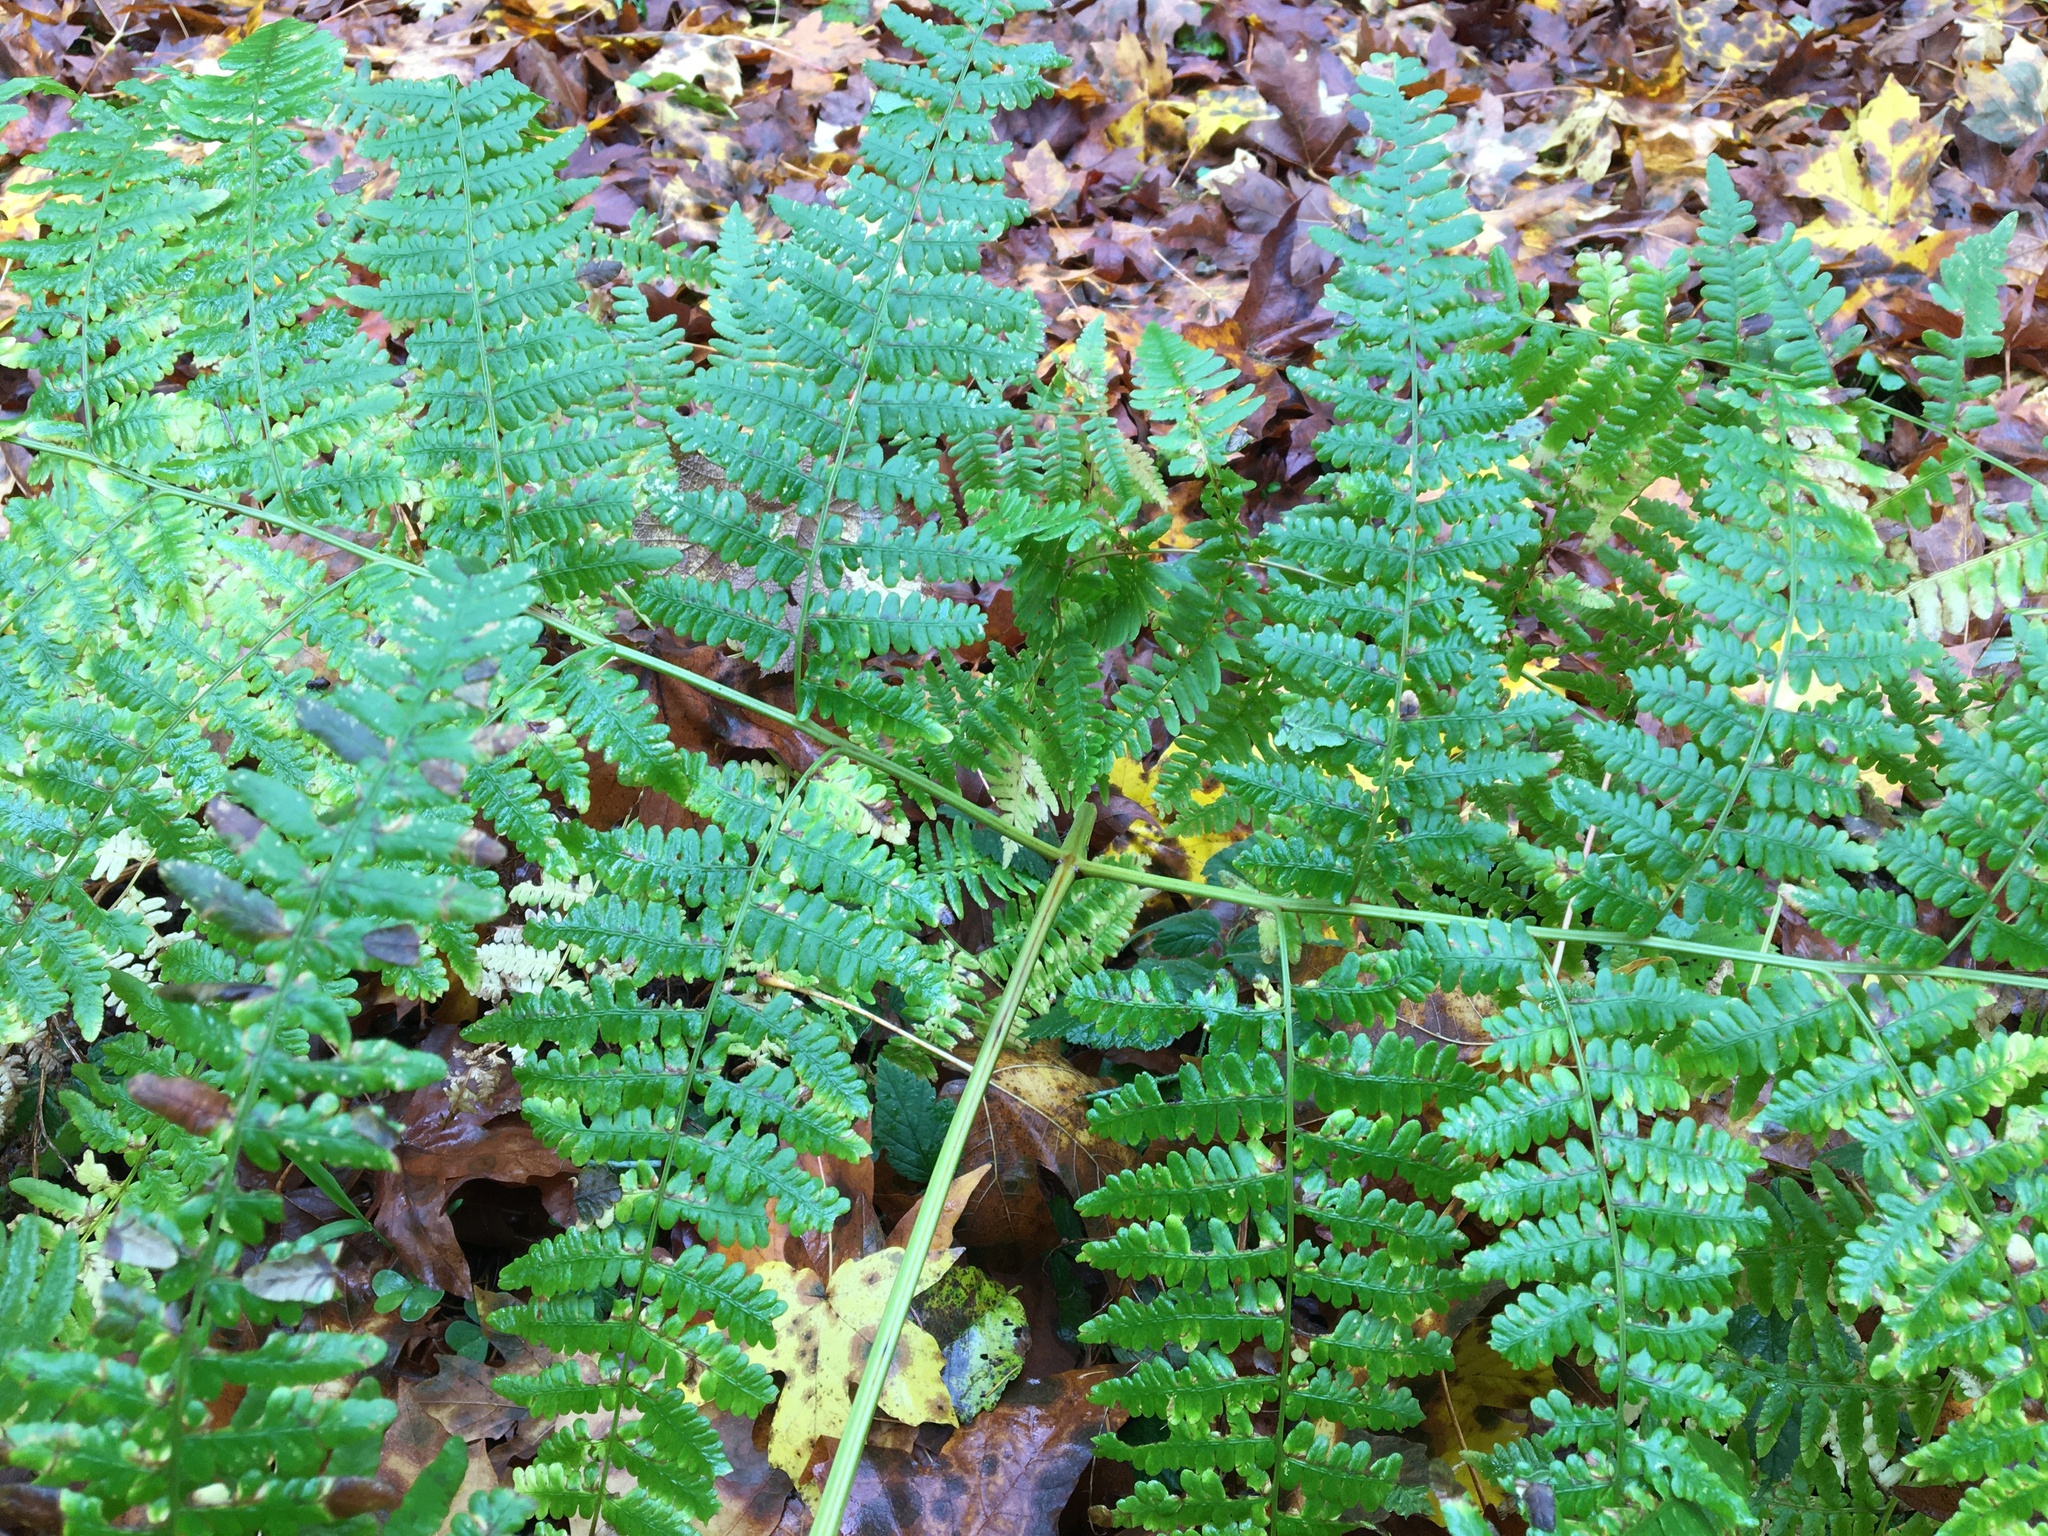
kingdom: Plantae
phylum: Tracheophyta
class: Polypodiopsida
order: Polypodiales
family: Dennstaedtiaceae
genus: Pteridium
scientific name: Pteridium aquilinum
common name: Bracken
